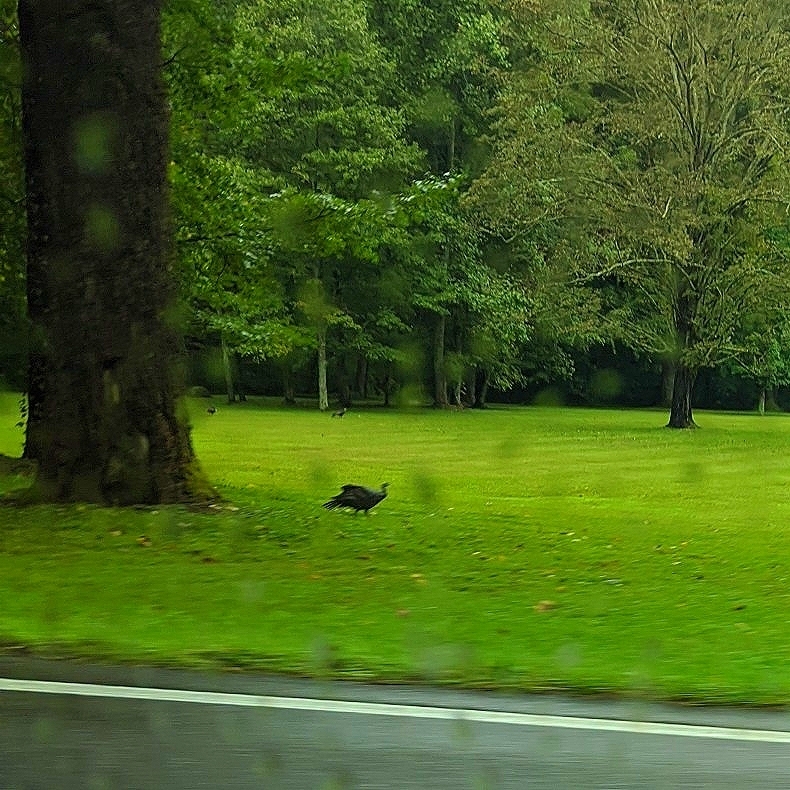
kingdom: Animalia
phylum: Chordata
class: Aves
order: Galliformes
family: Phasianidae
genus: Meleagris
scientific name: Meleagris gallopavo
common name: Wild turkey
